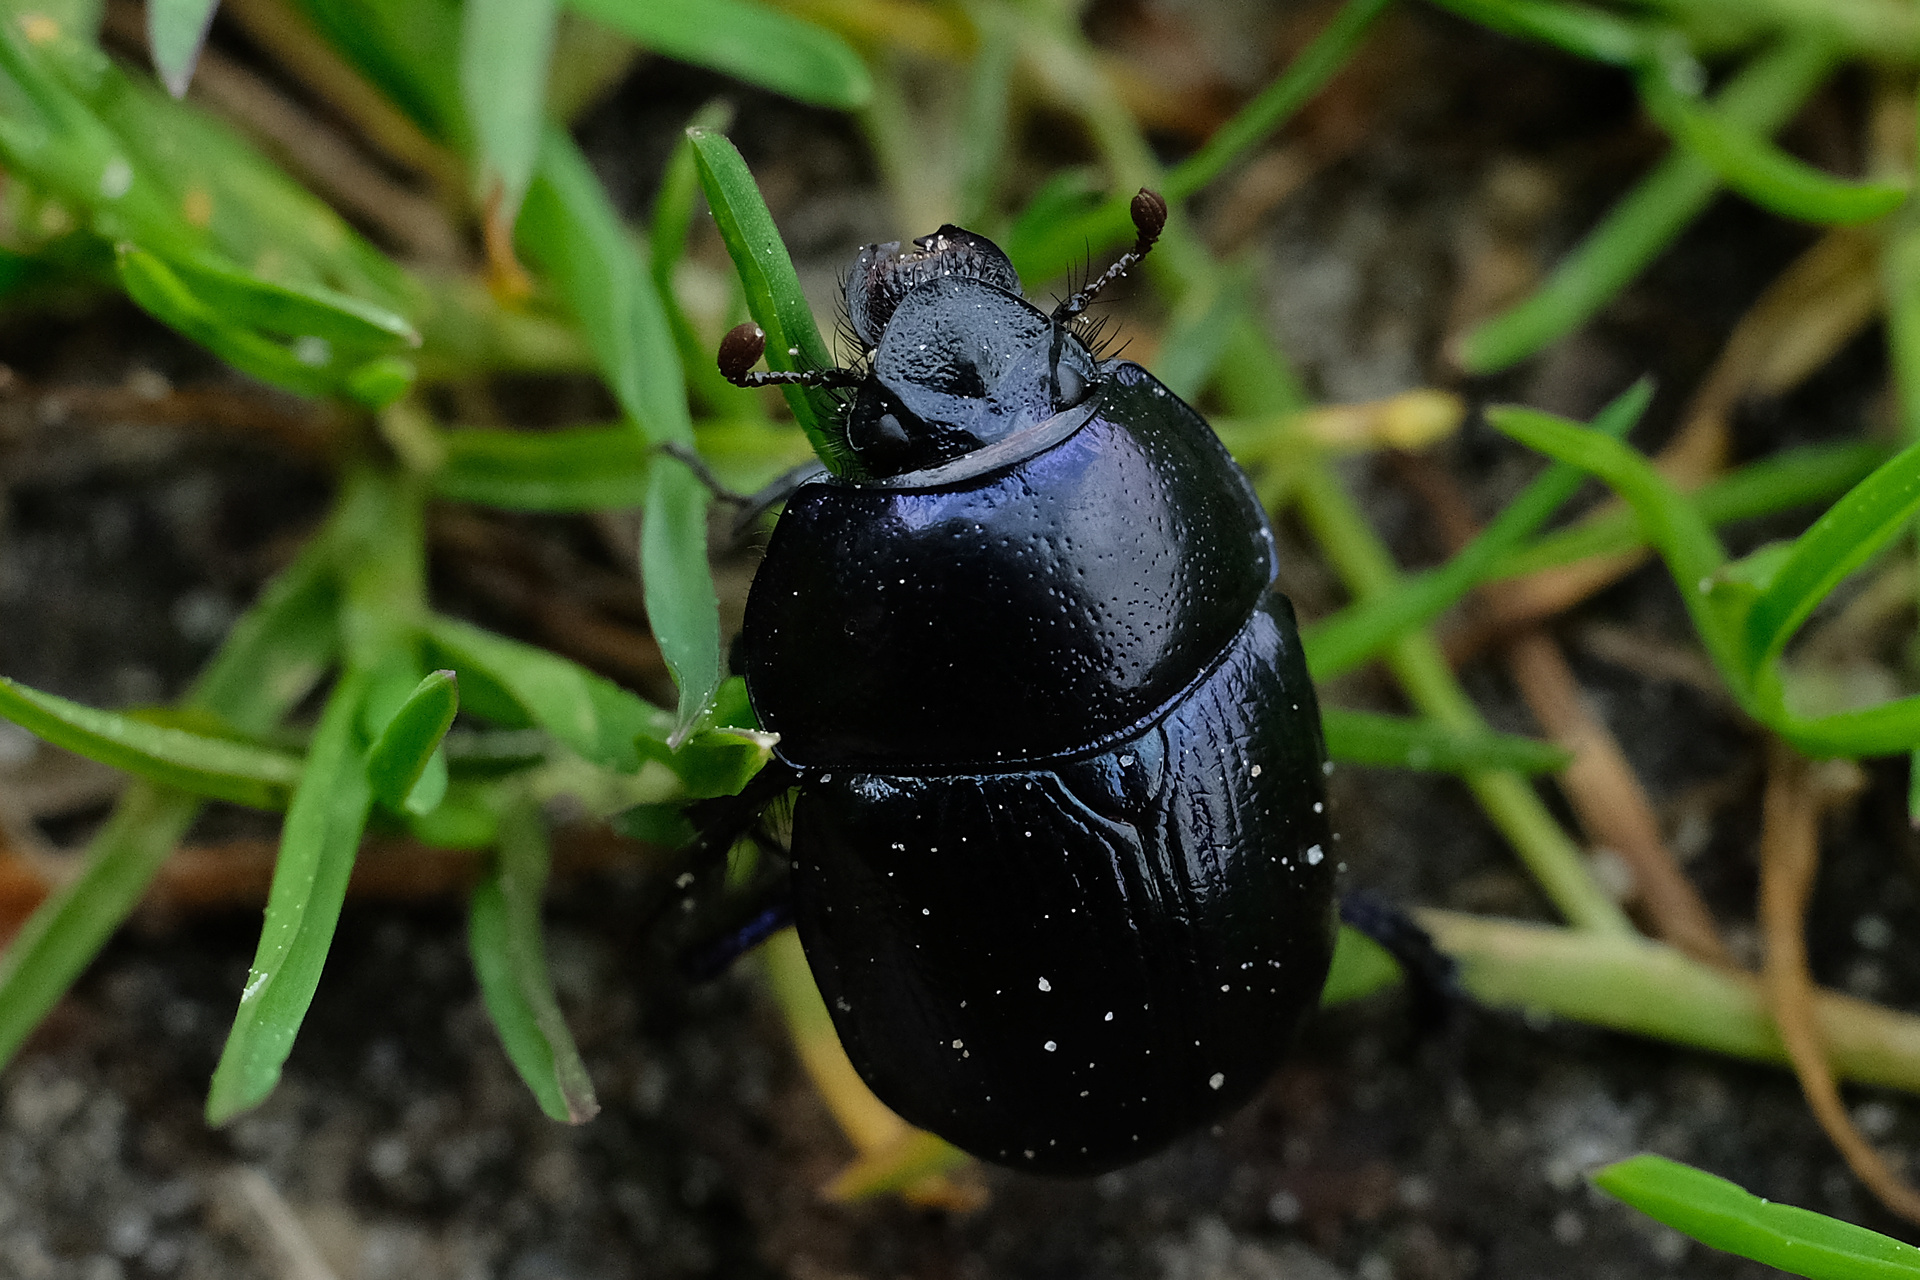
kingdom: Animalia
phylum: Arthropoda
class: Insecta
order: Coleoptera
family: Geotrupidae
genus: Anoplotrupes
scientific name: Anoplotrupes stercorosus
